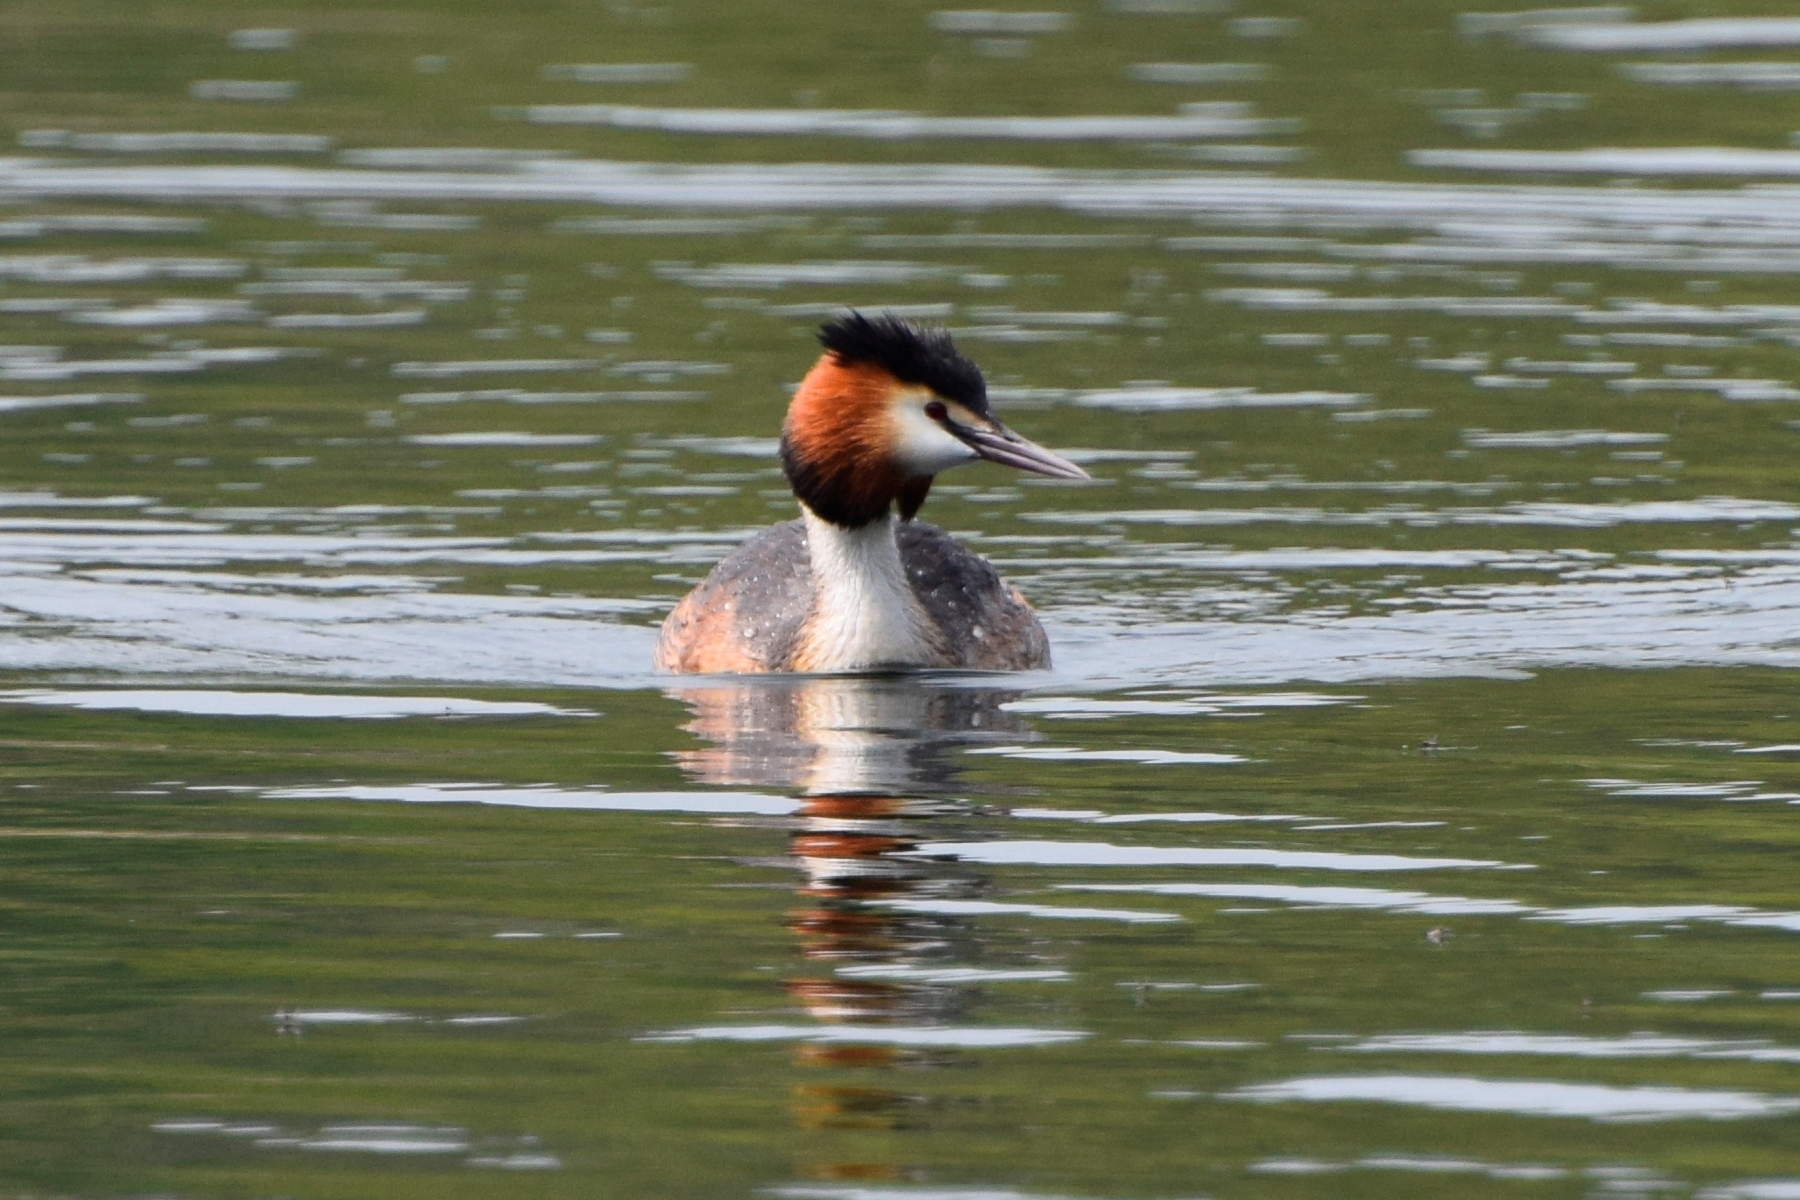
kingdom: Animalia
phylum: Chordata
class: Aves
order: Podicipediformes
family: Podicipedidae
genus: Podiceps
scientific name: Podiceps cristatus
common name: Great crested grebe
